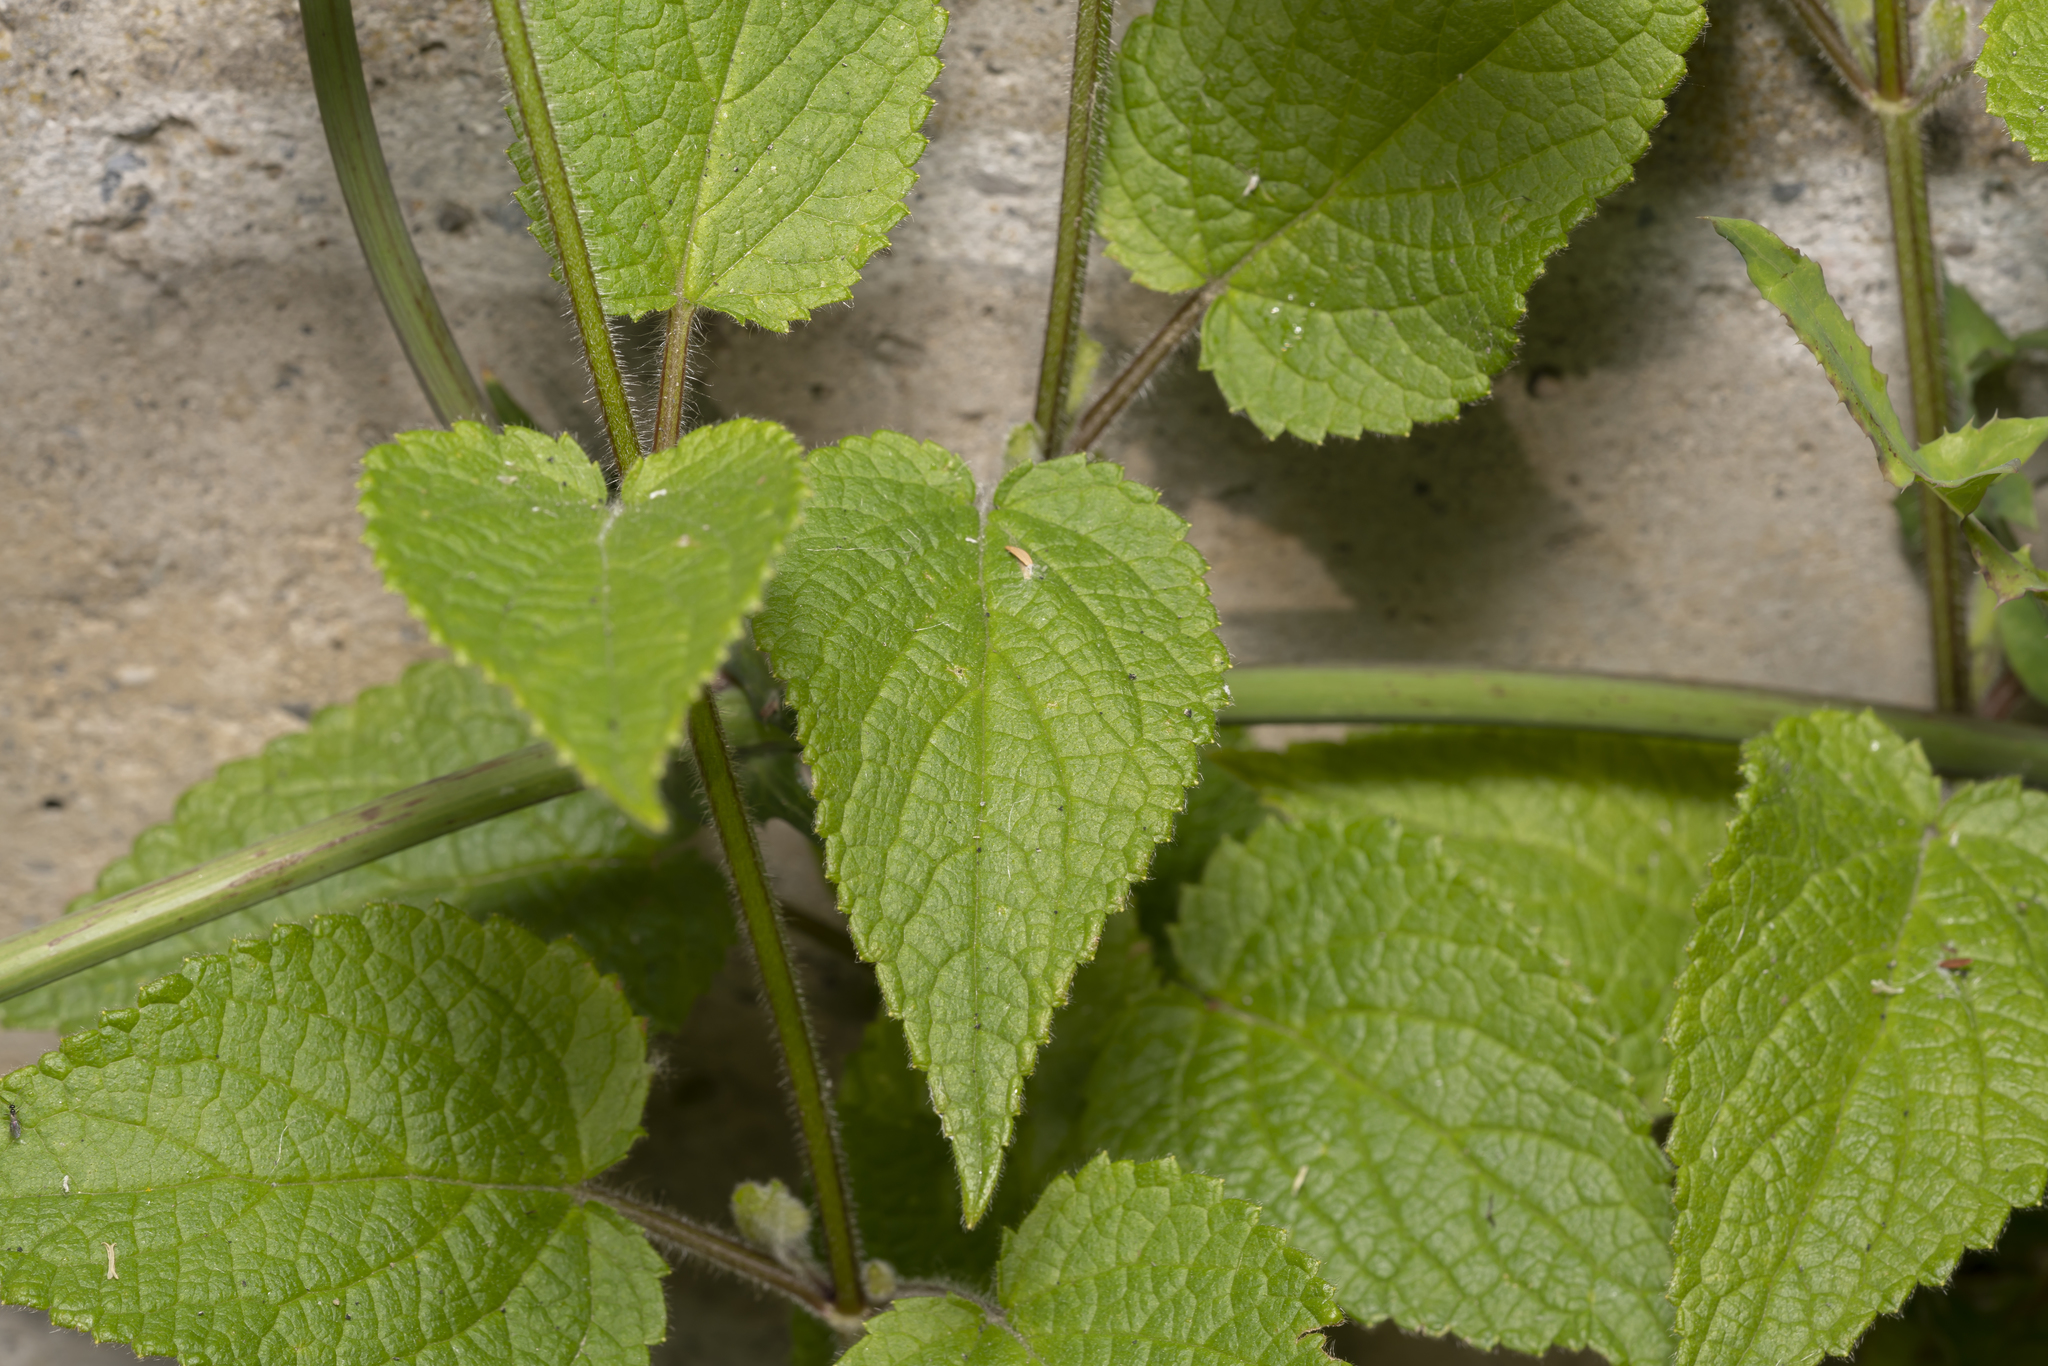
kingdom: Plantae
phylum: Tracheophyta
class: Magnoliopsida
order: Lamiales
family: Lamiaceae
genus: Stachys
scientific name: Stachys sylvatica
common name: Hedge woundwort
